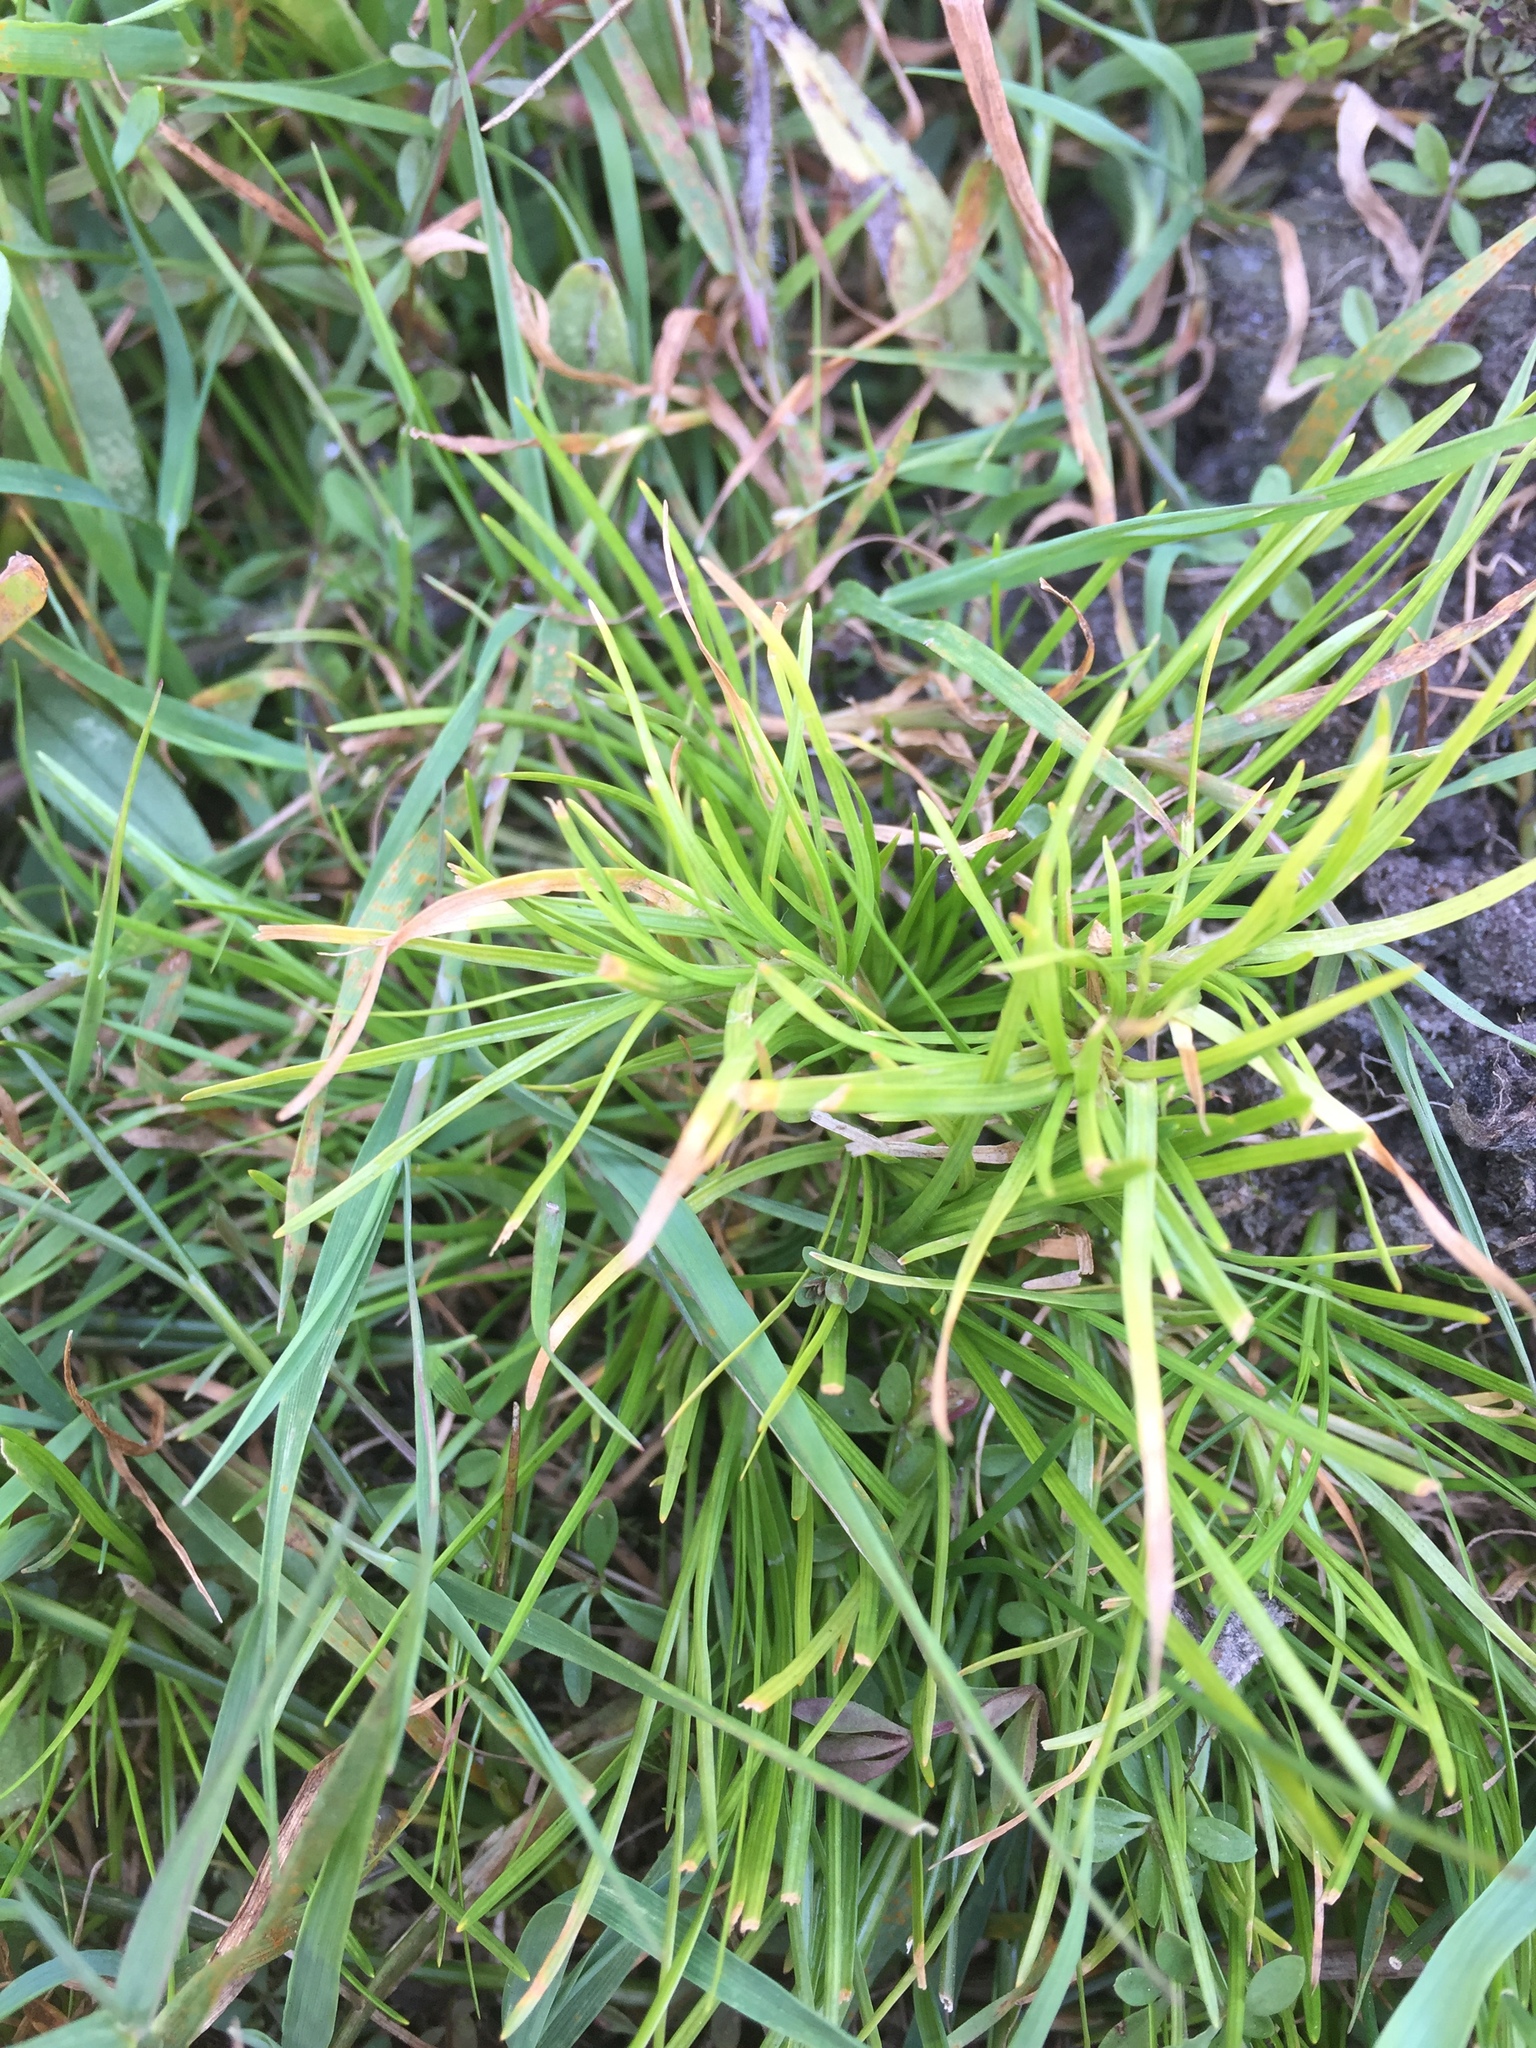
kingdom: Plantae
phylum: Tracheophyta
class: Liliopsida
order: Poales
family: Cyperaceae
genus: Isolepis
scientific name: Isolepis fluitans
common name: Floating club-rush
